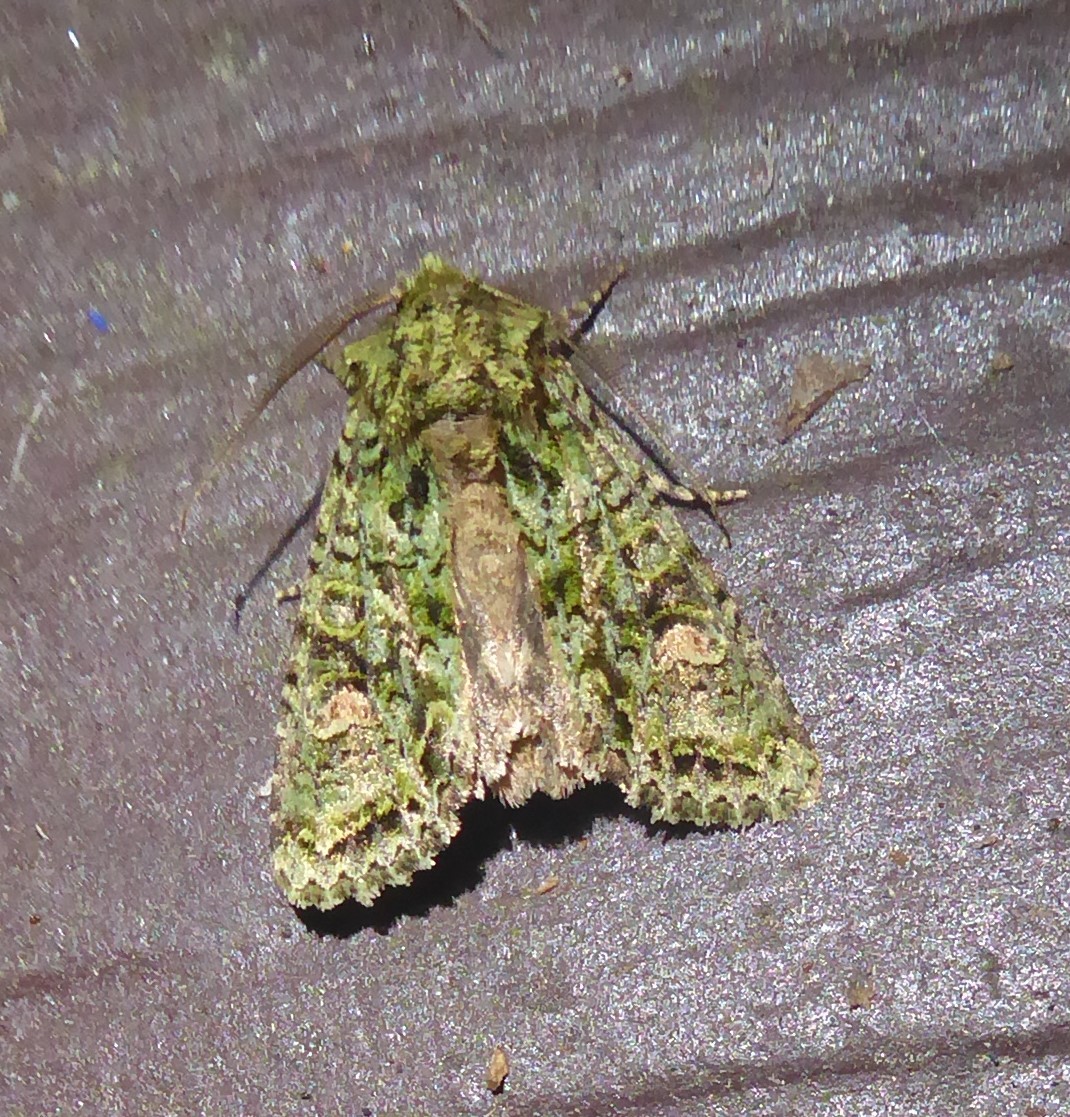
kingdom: Animalia
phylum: Arthropoda
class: Insecta
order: Lepidoptera
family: Noctuidae
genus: Ichneutica
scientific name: Ichneutica
